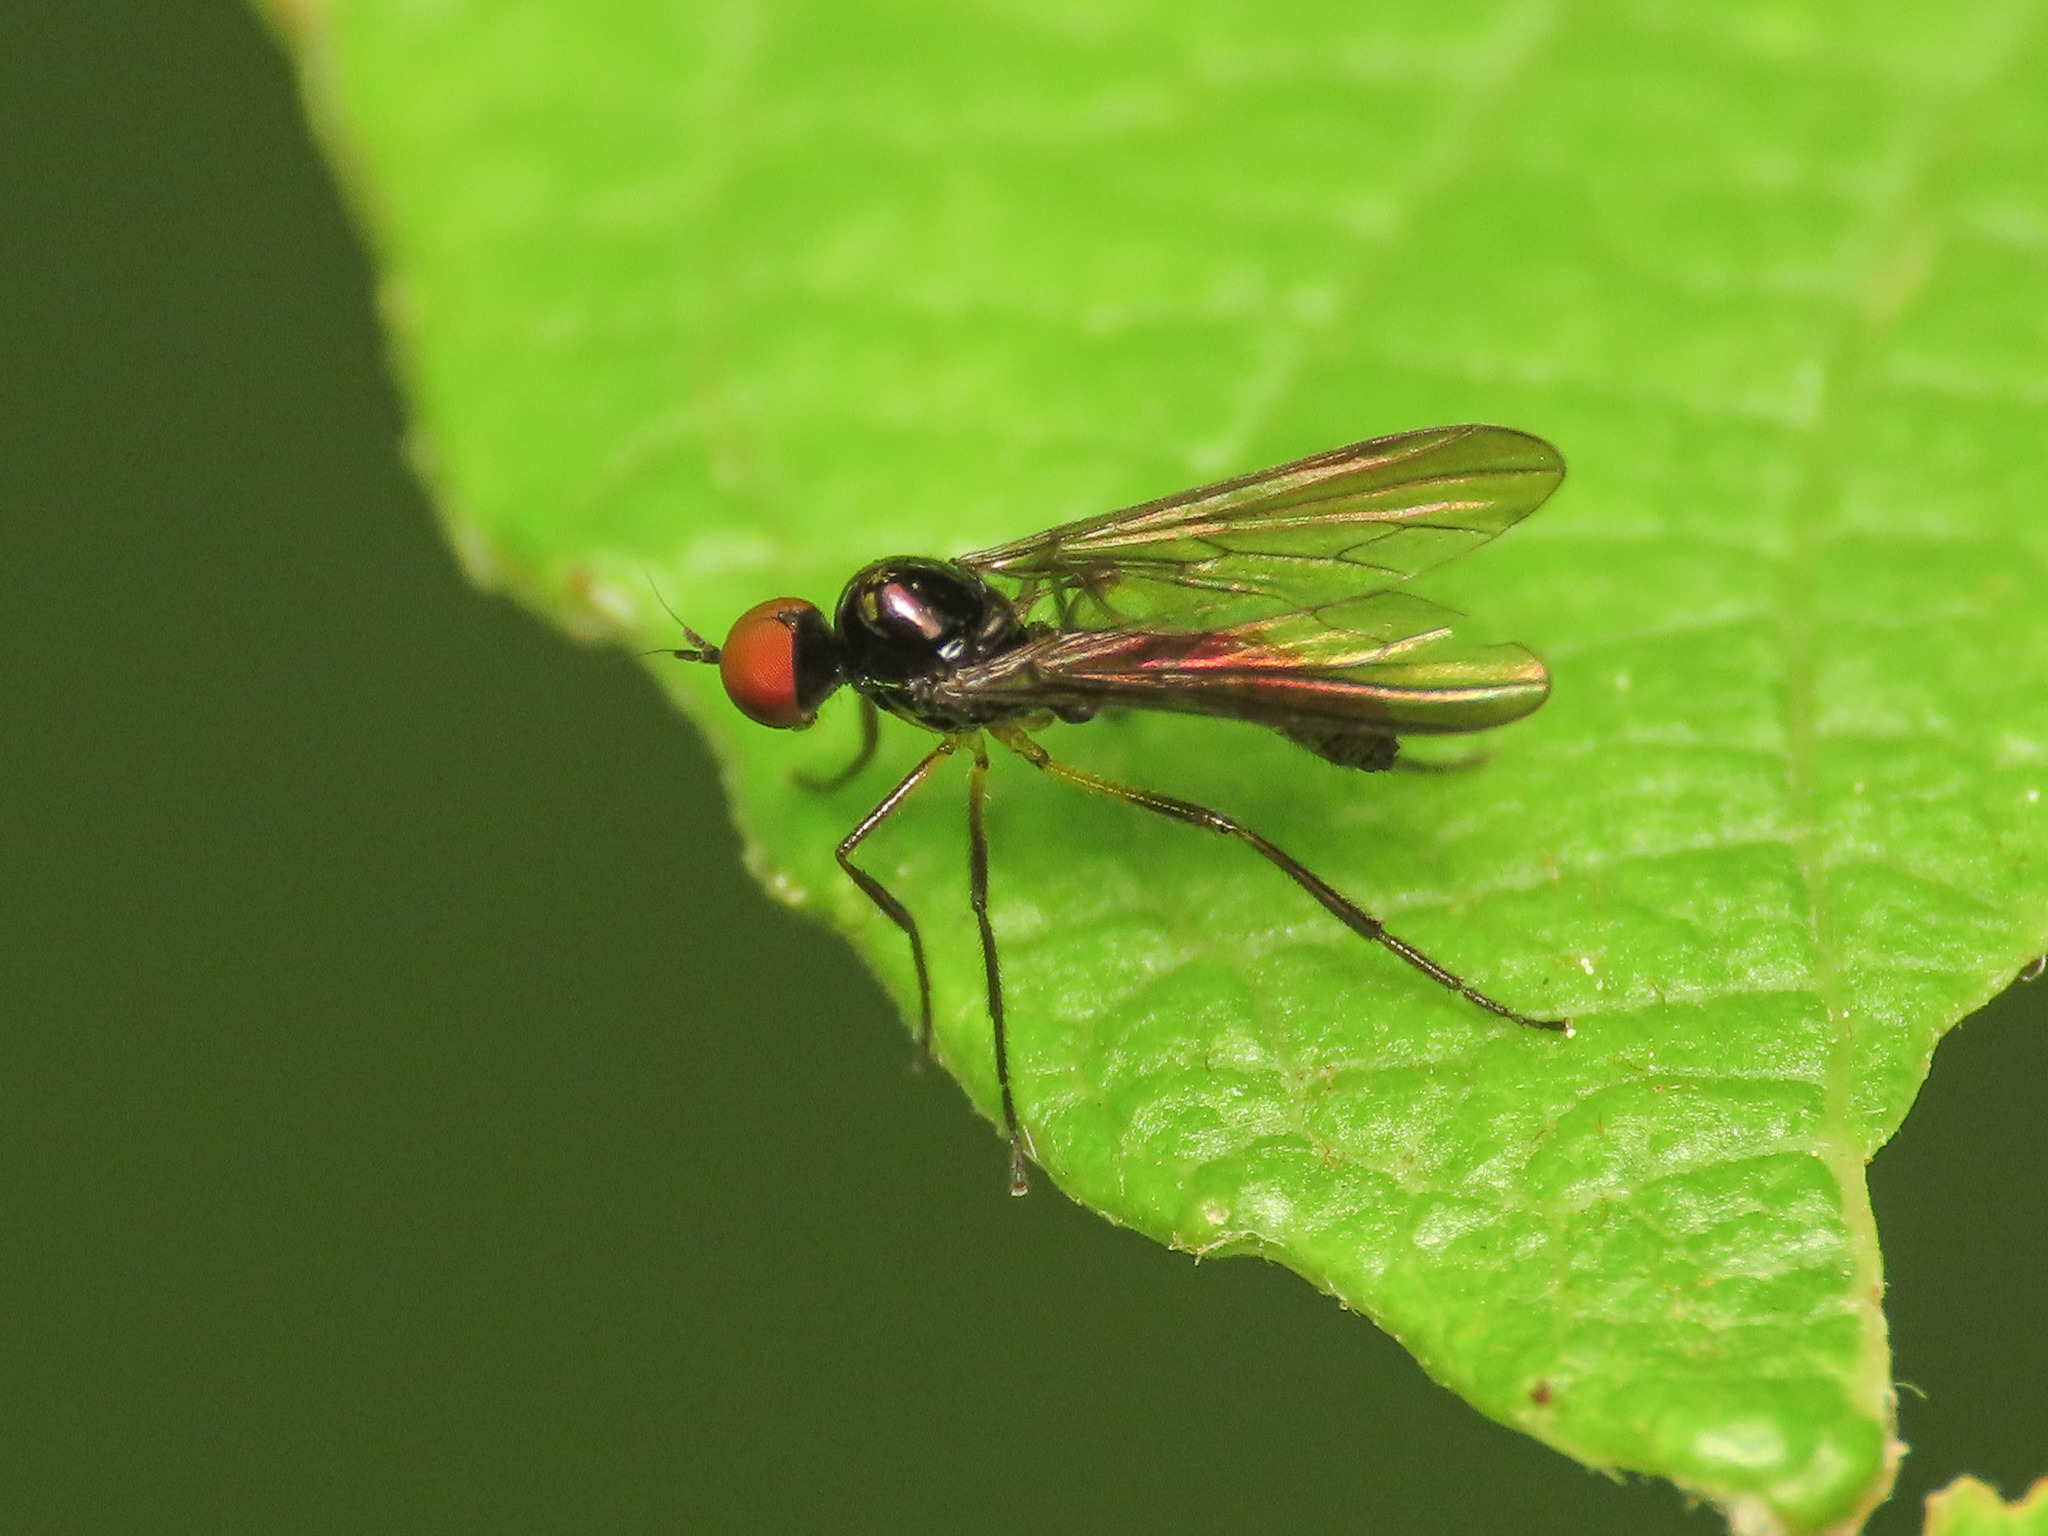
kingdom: Animalia
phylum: Arthropoda
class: Insecta
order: Diptera
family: Hybotidae
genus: Ocydromia
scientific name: Ocydromia glabricula
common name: Dance fly
